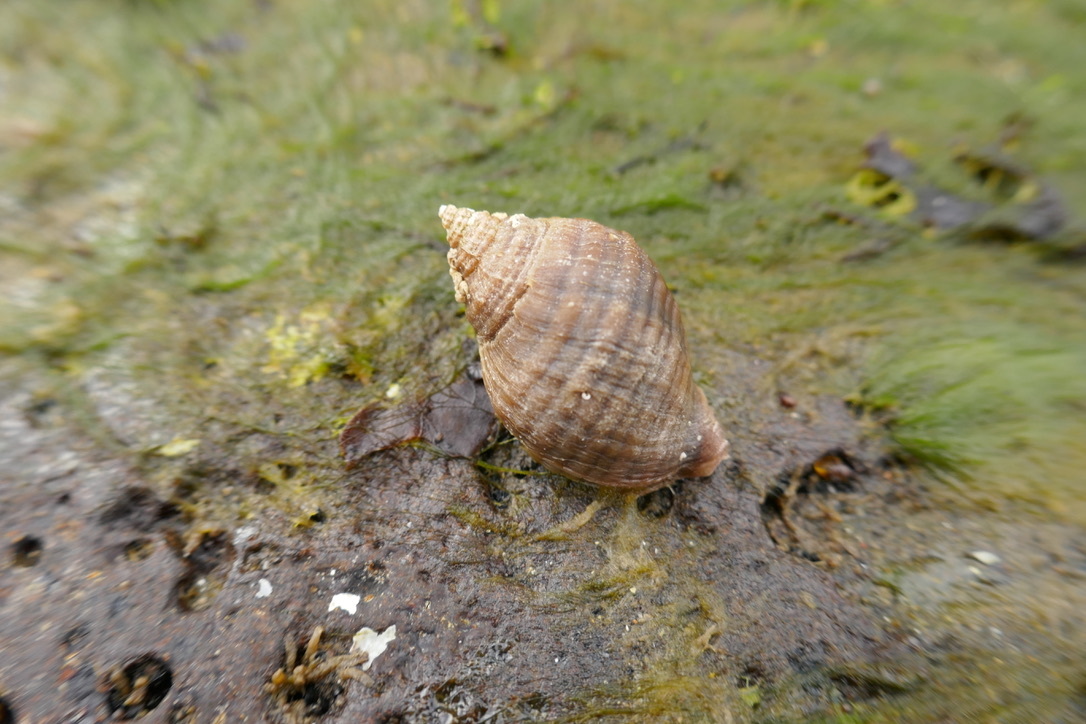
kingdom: Animalia
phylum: Mollusca
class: Gastropoda
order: Neogastropoda
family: Muricidae
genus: Nucella
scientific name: Nucella lapillus
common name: Dog whelk
